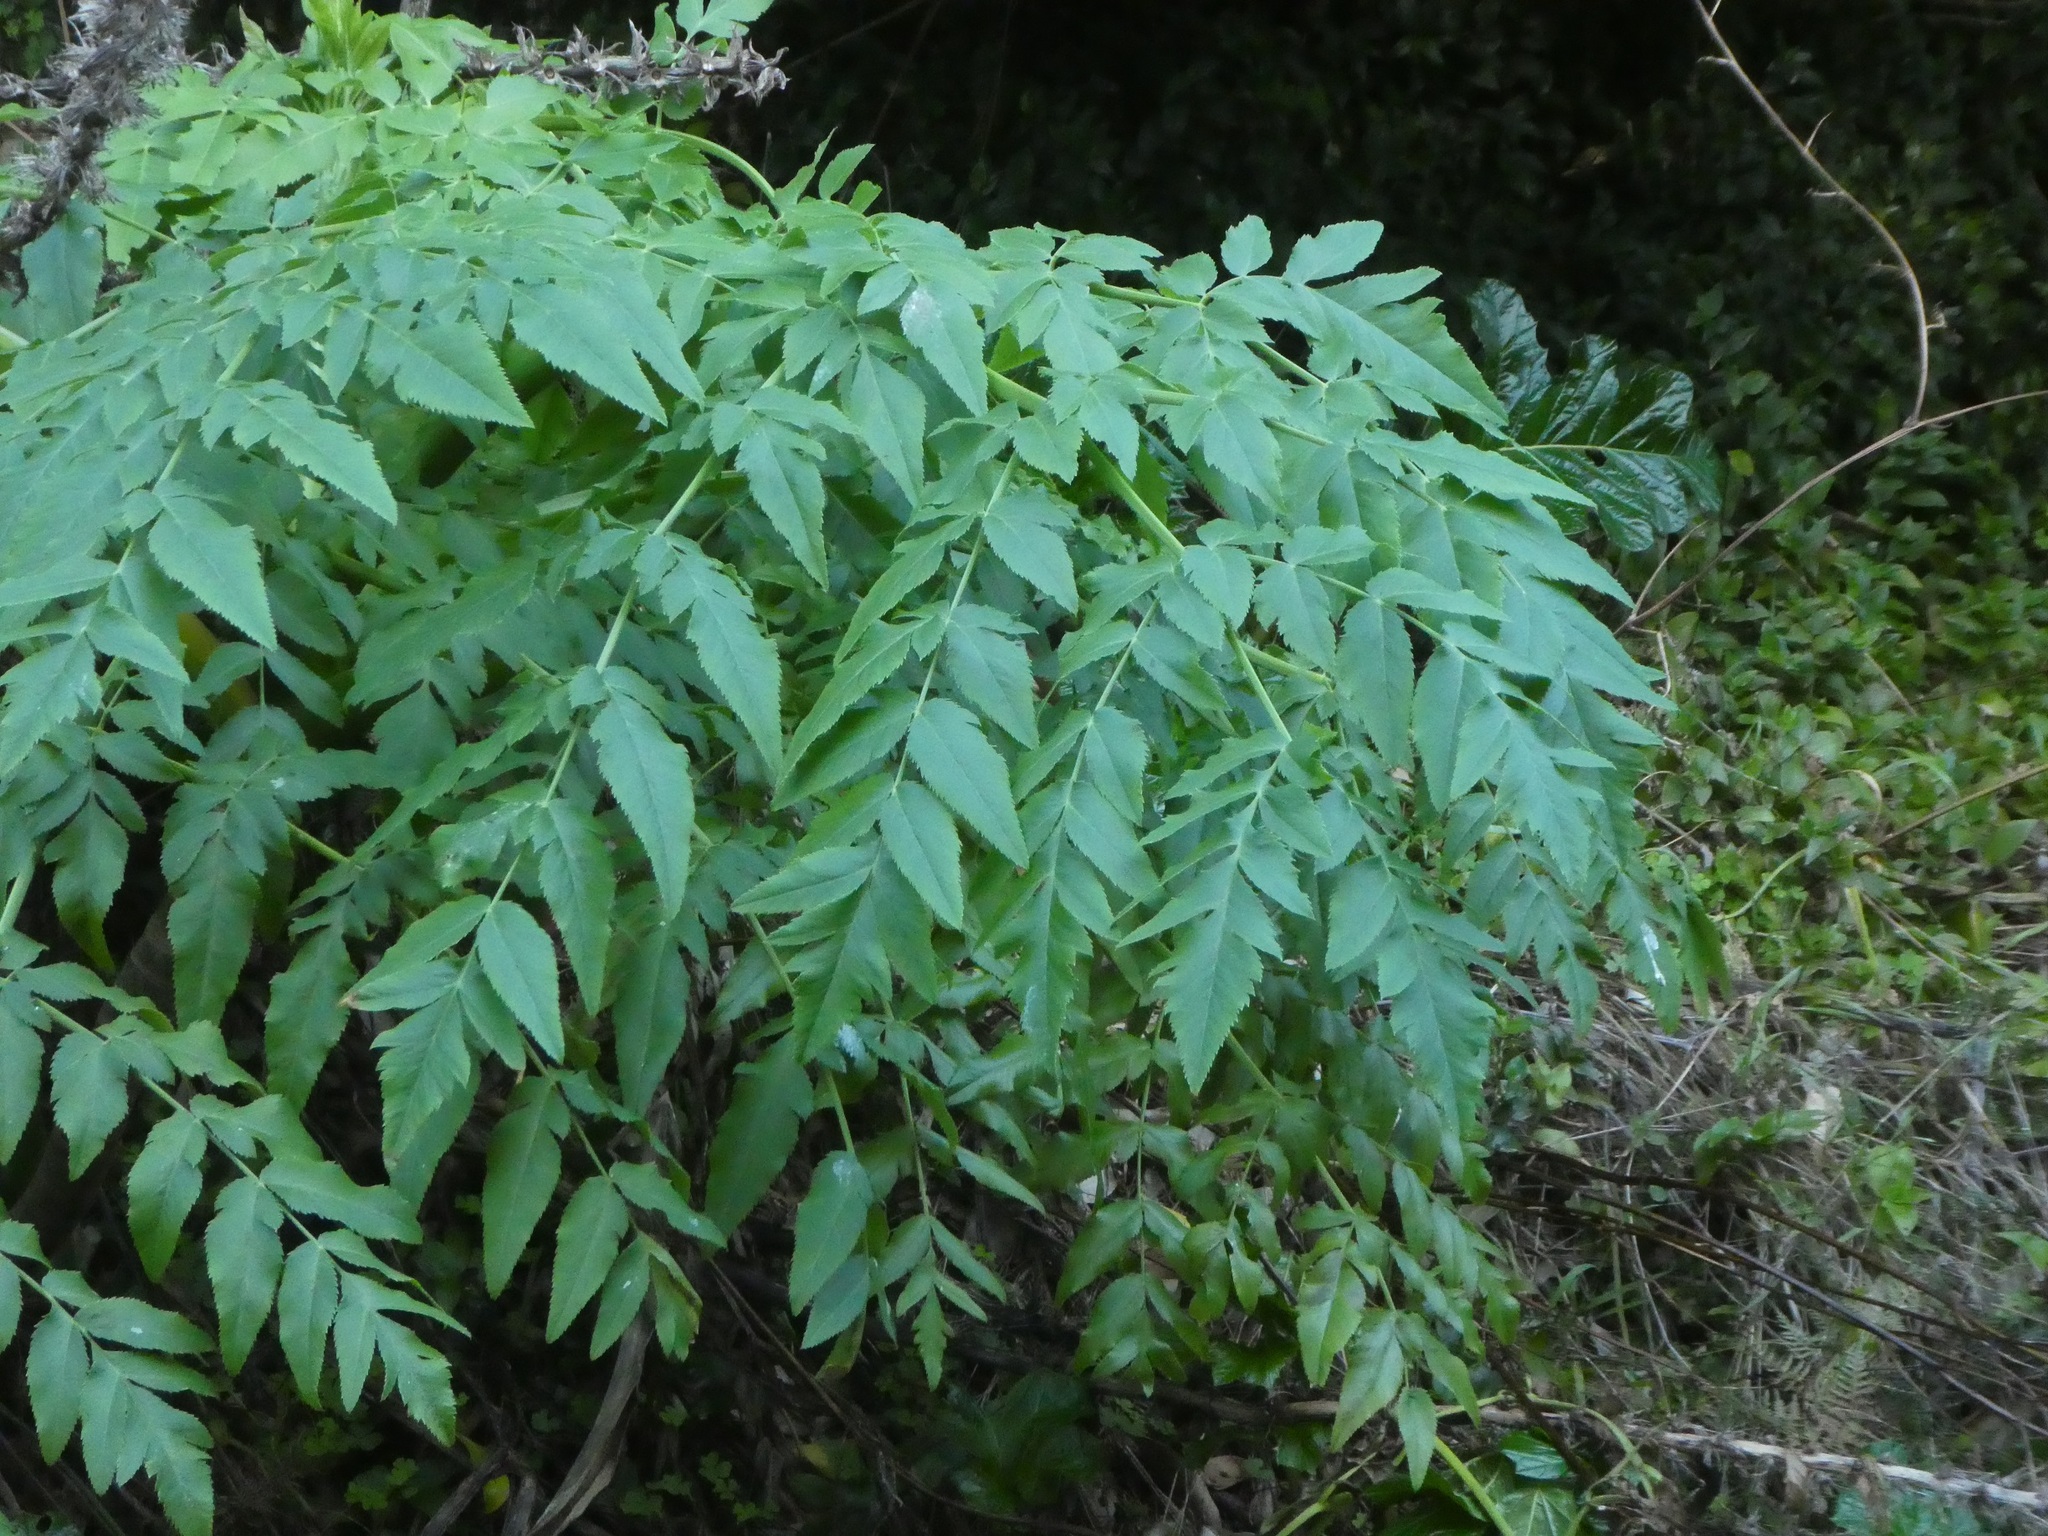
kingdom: Plantae
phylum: Tracheophyta
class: Magnoliopsida
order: Apiales
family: Apiaceae
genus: Daucus
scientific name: Daucus decipiens
